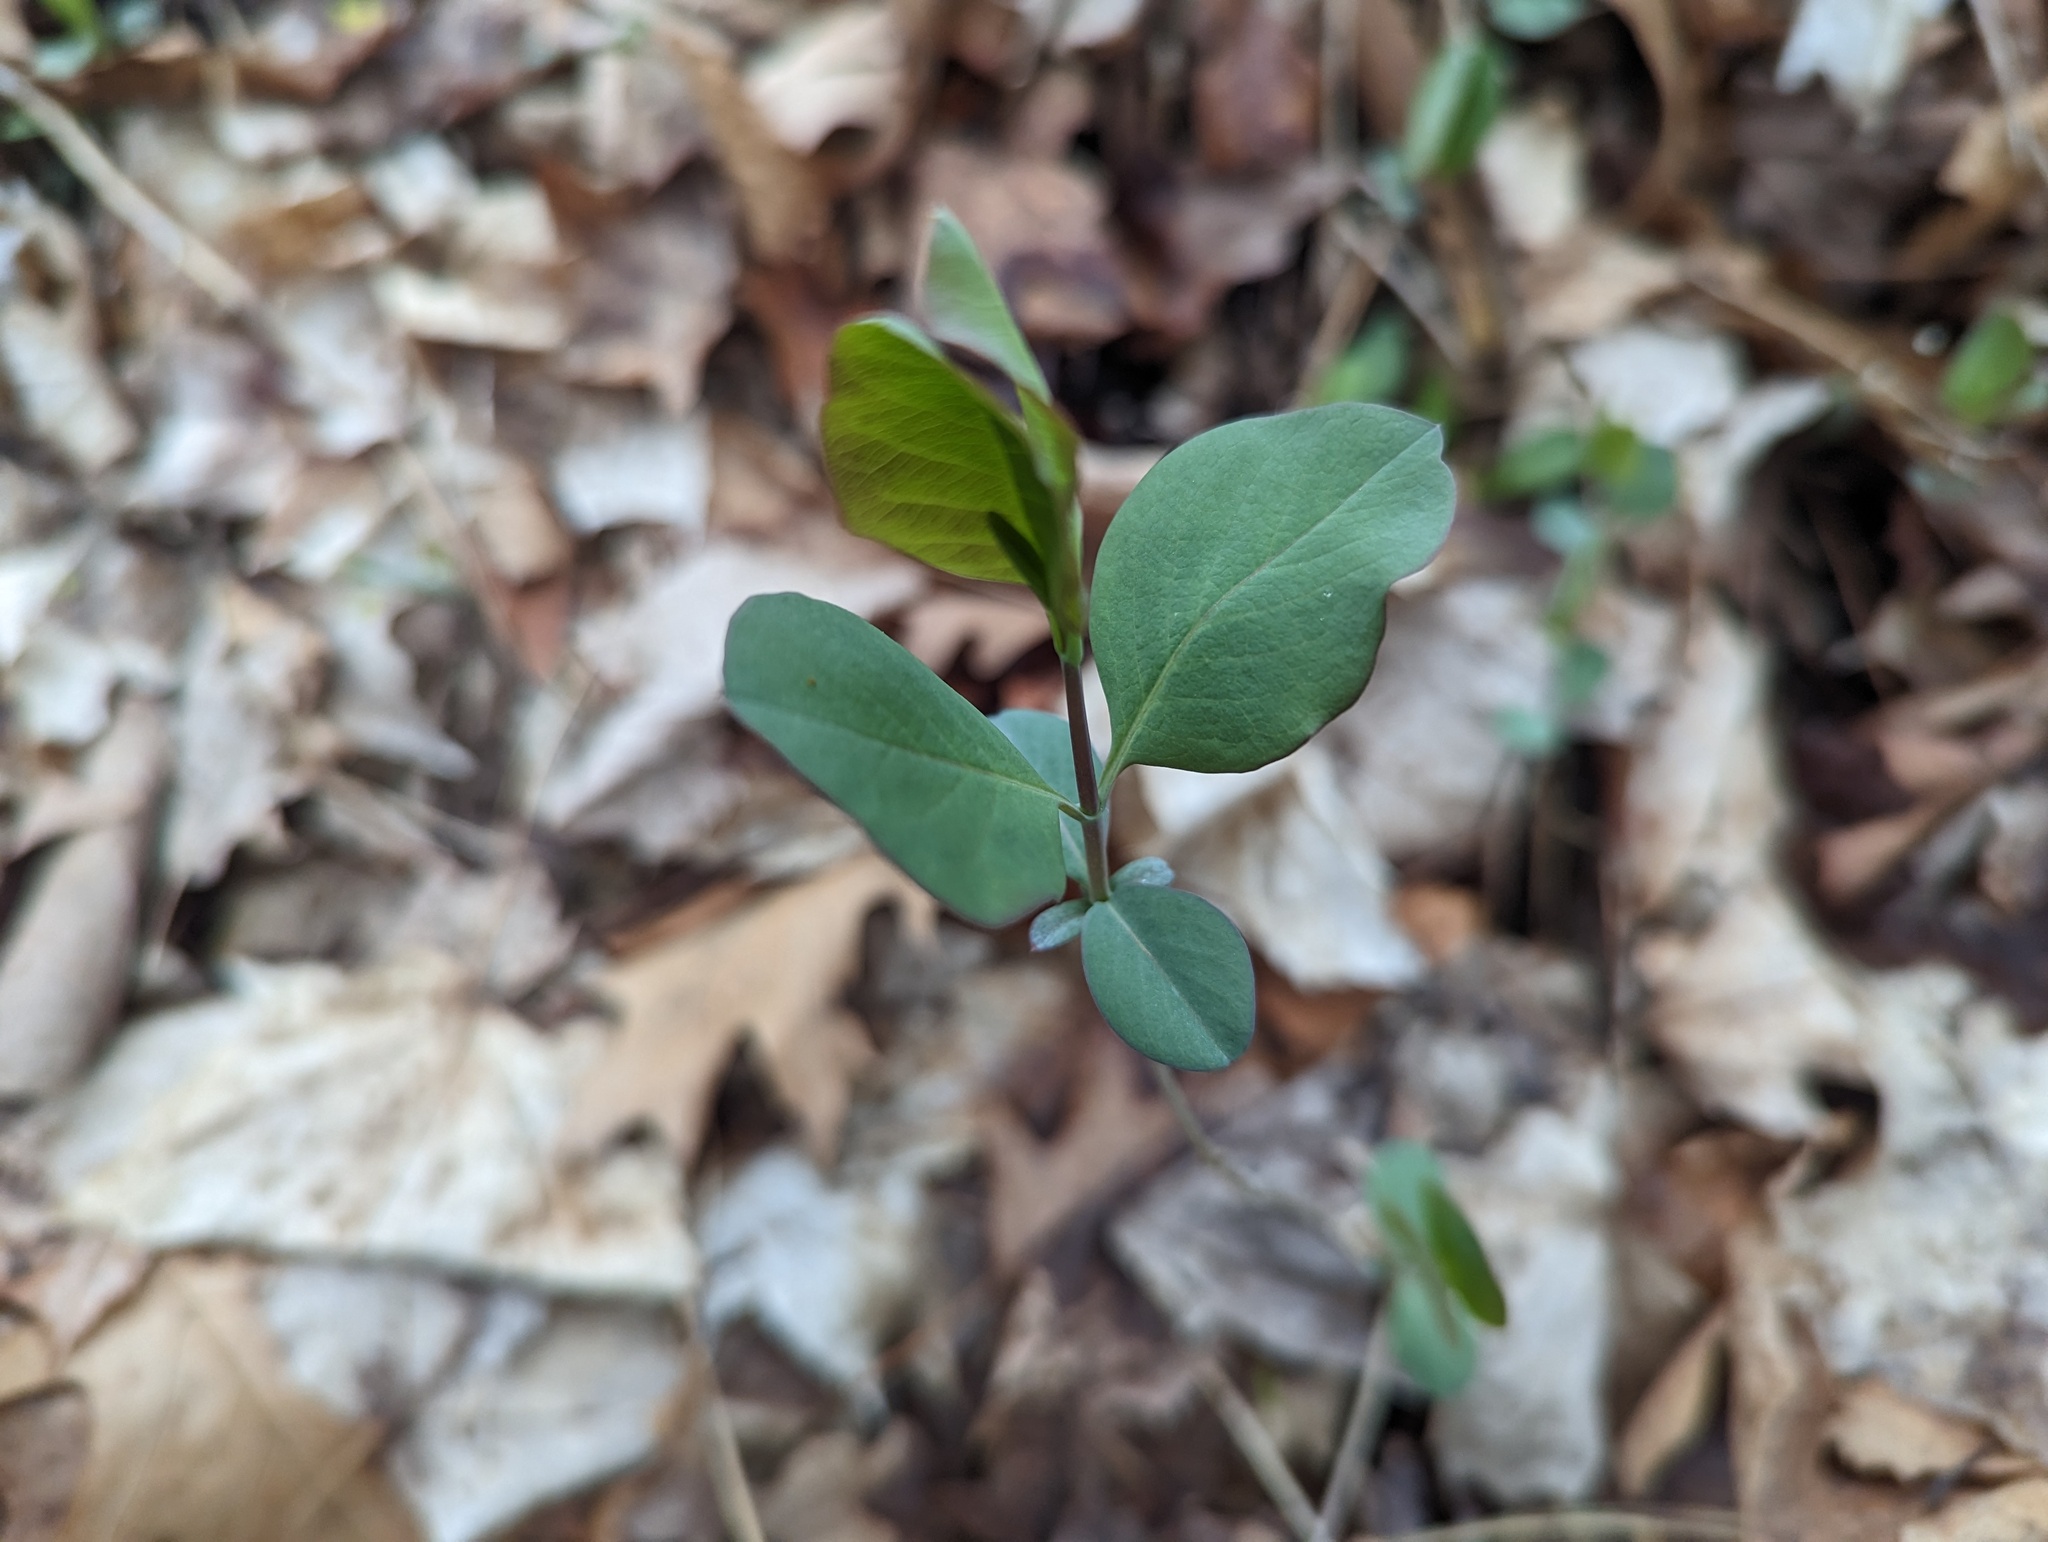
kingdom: Plantae
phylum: Tracheophyta
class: Magnoliopsida
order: Dipsacales
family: Caprifoliaceae
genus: Lonicera
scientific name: Lonicera reticulata
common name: Grape honeysuckle
